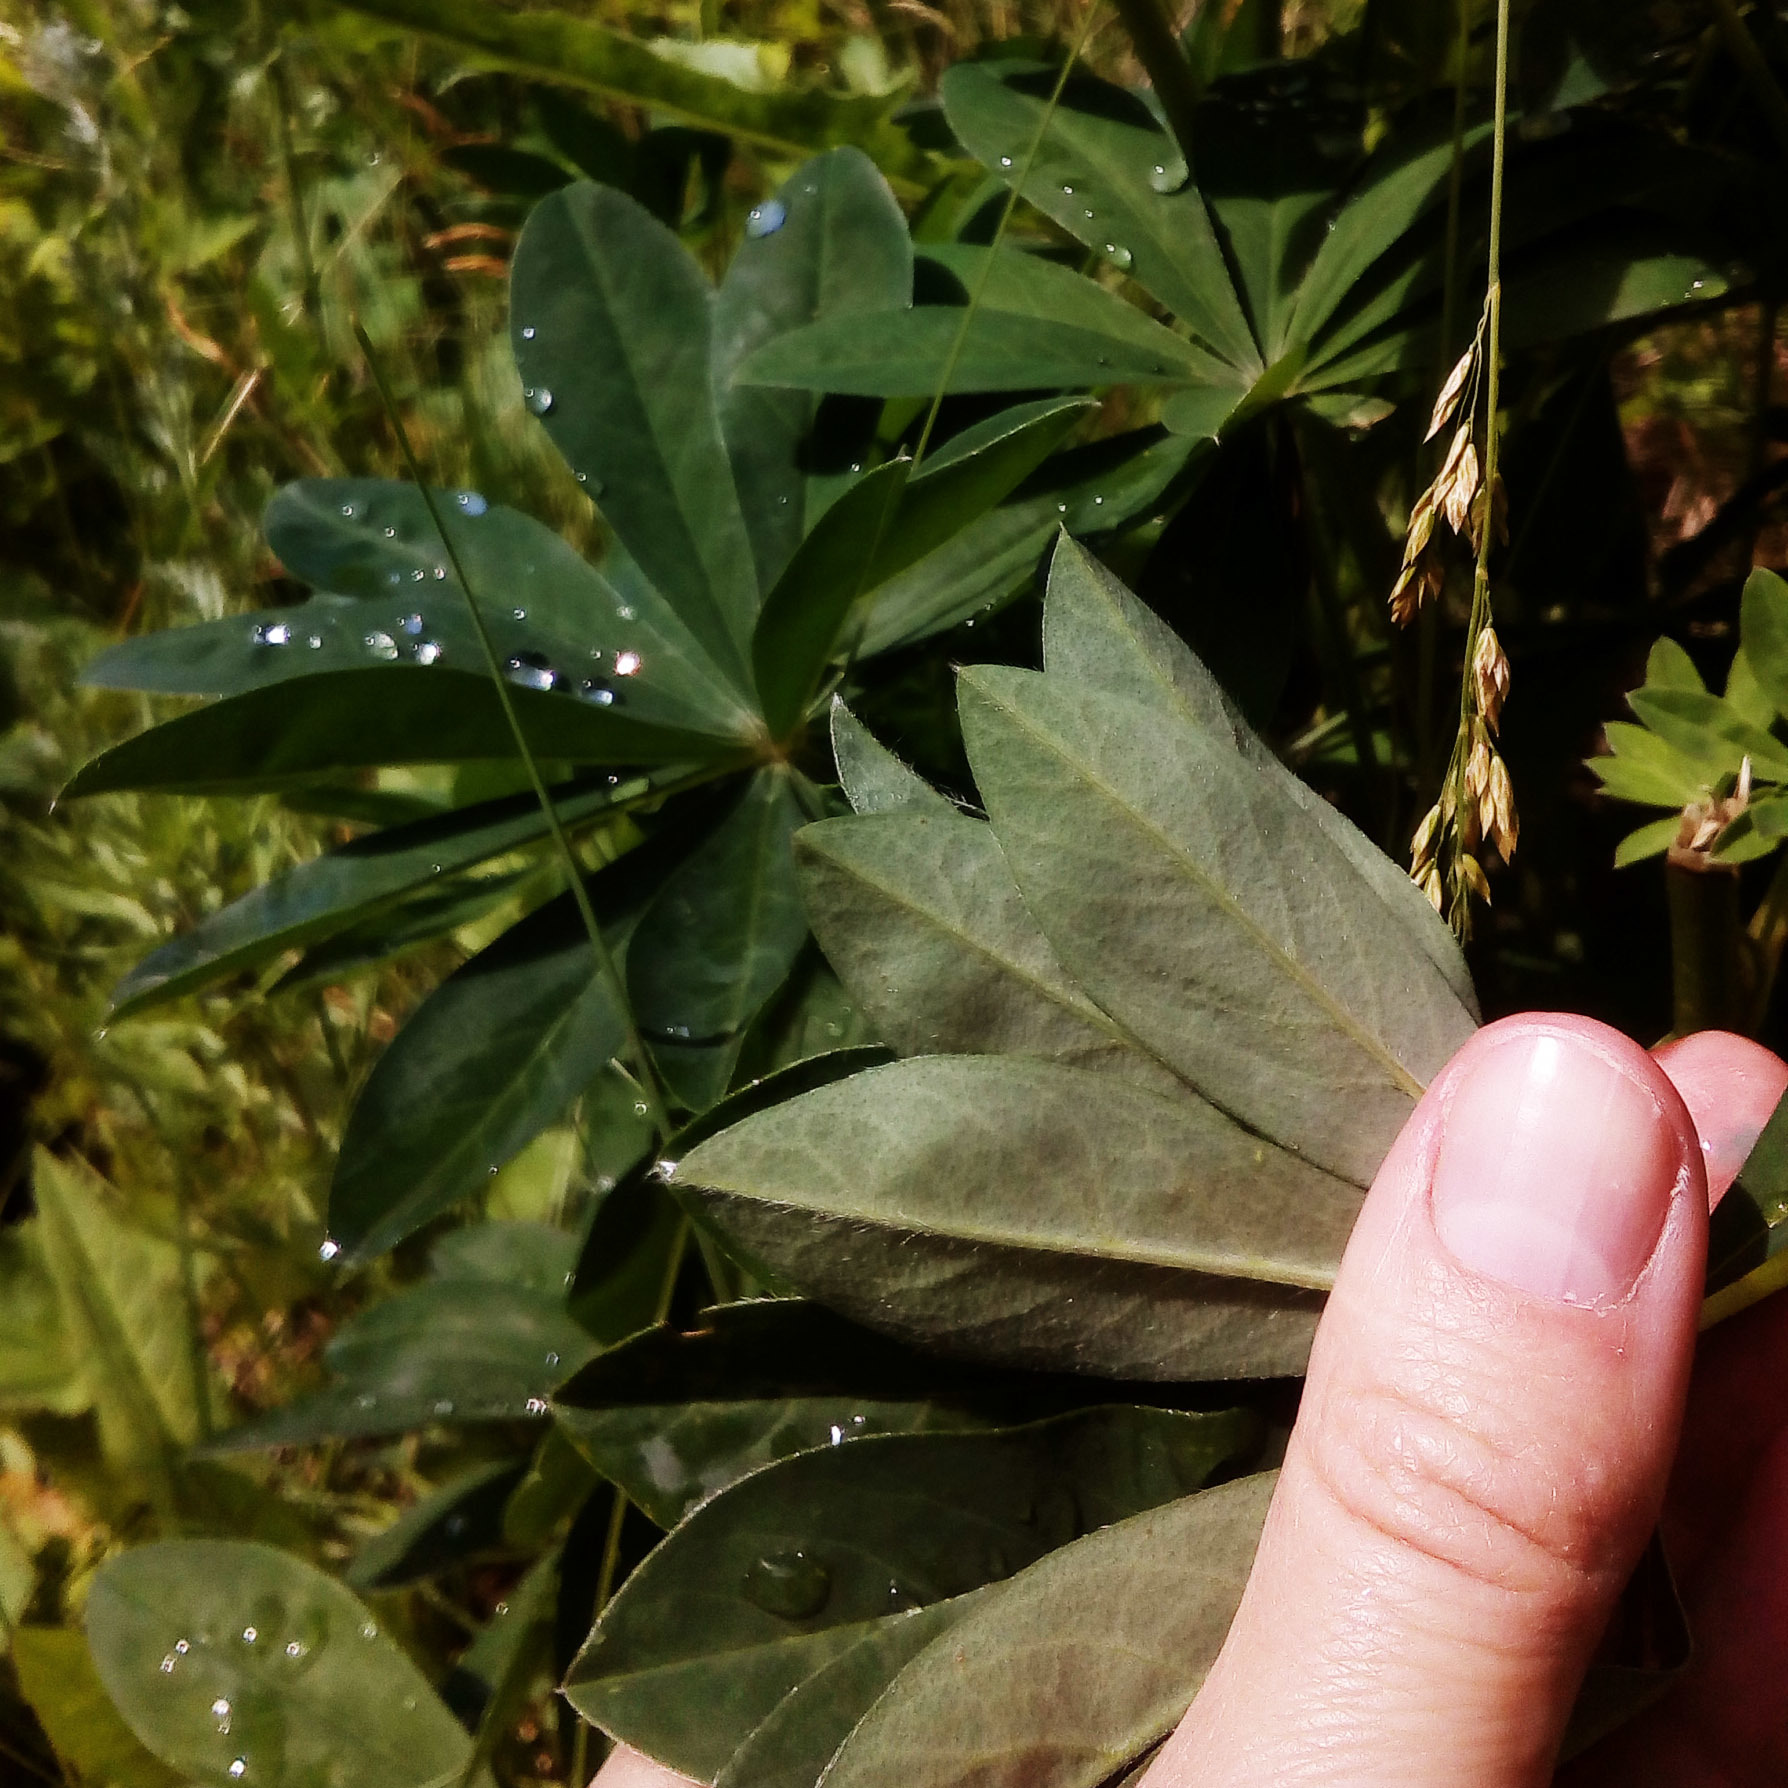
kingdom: Plantae
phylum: Tracheophyta
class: Magnoliopsida
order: Fabales
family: Fabaceae
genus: Lupinus
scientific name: Lupinus polyphyllus
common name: Garden lupin
